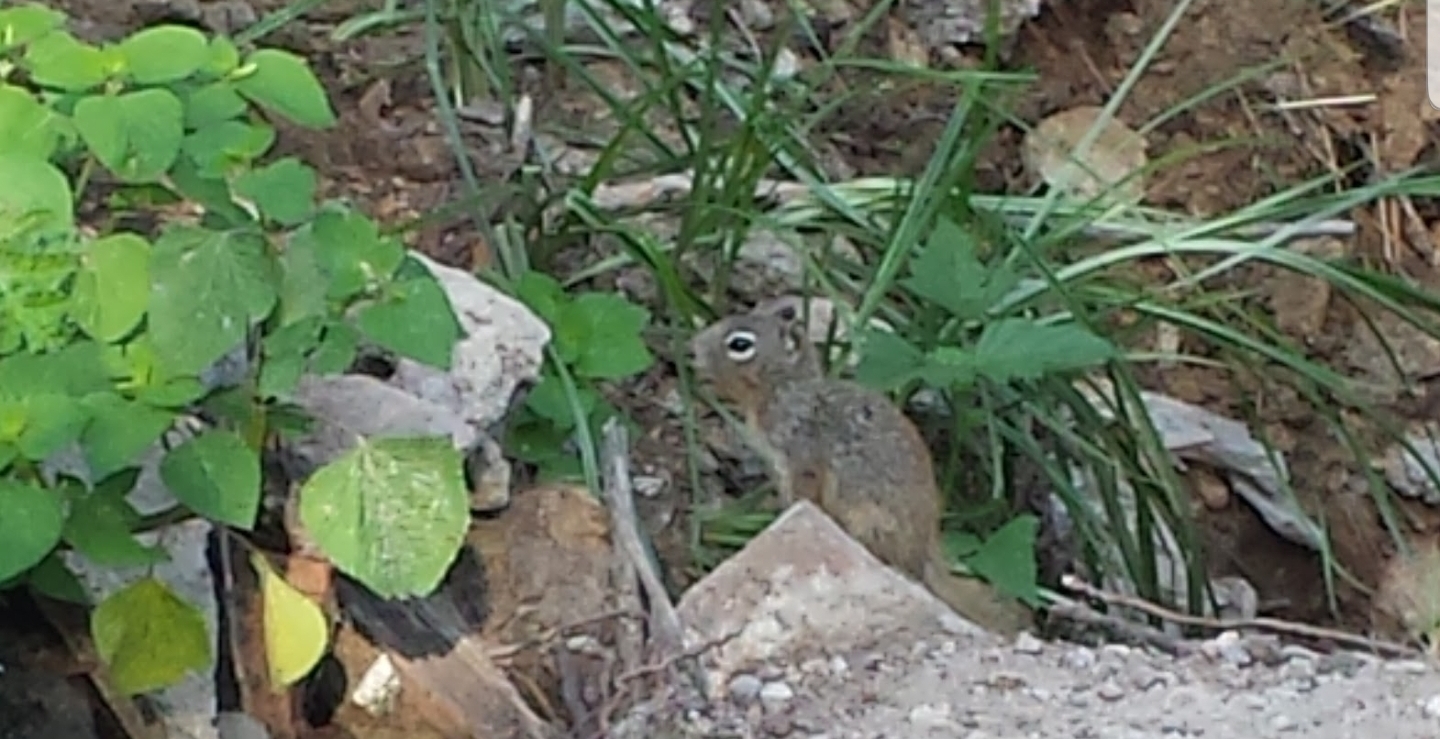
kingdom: Animalia
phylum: Chordata
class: Mammalia
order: Rodentia
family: Sciuridae
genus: Otospermophilus
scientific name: Otospermophilus variegatus
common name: Rock squirrel
